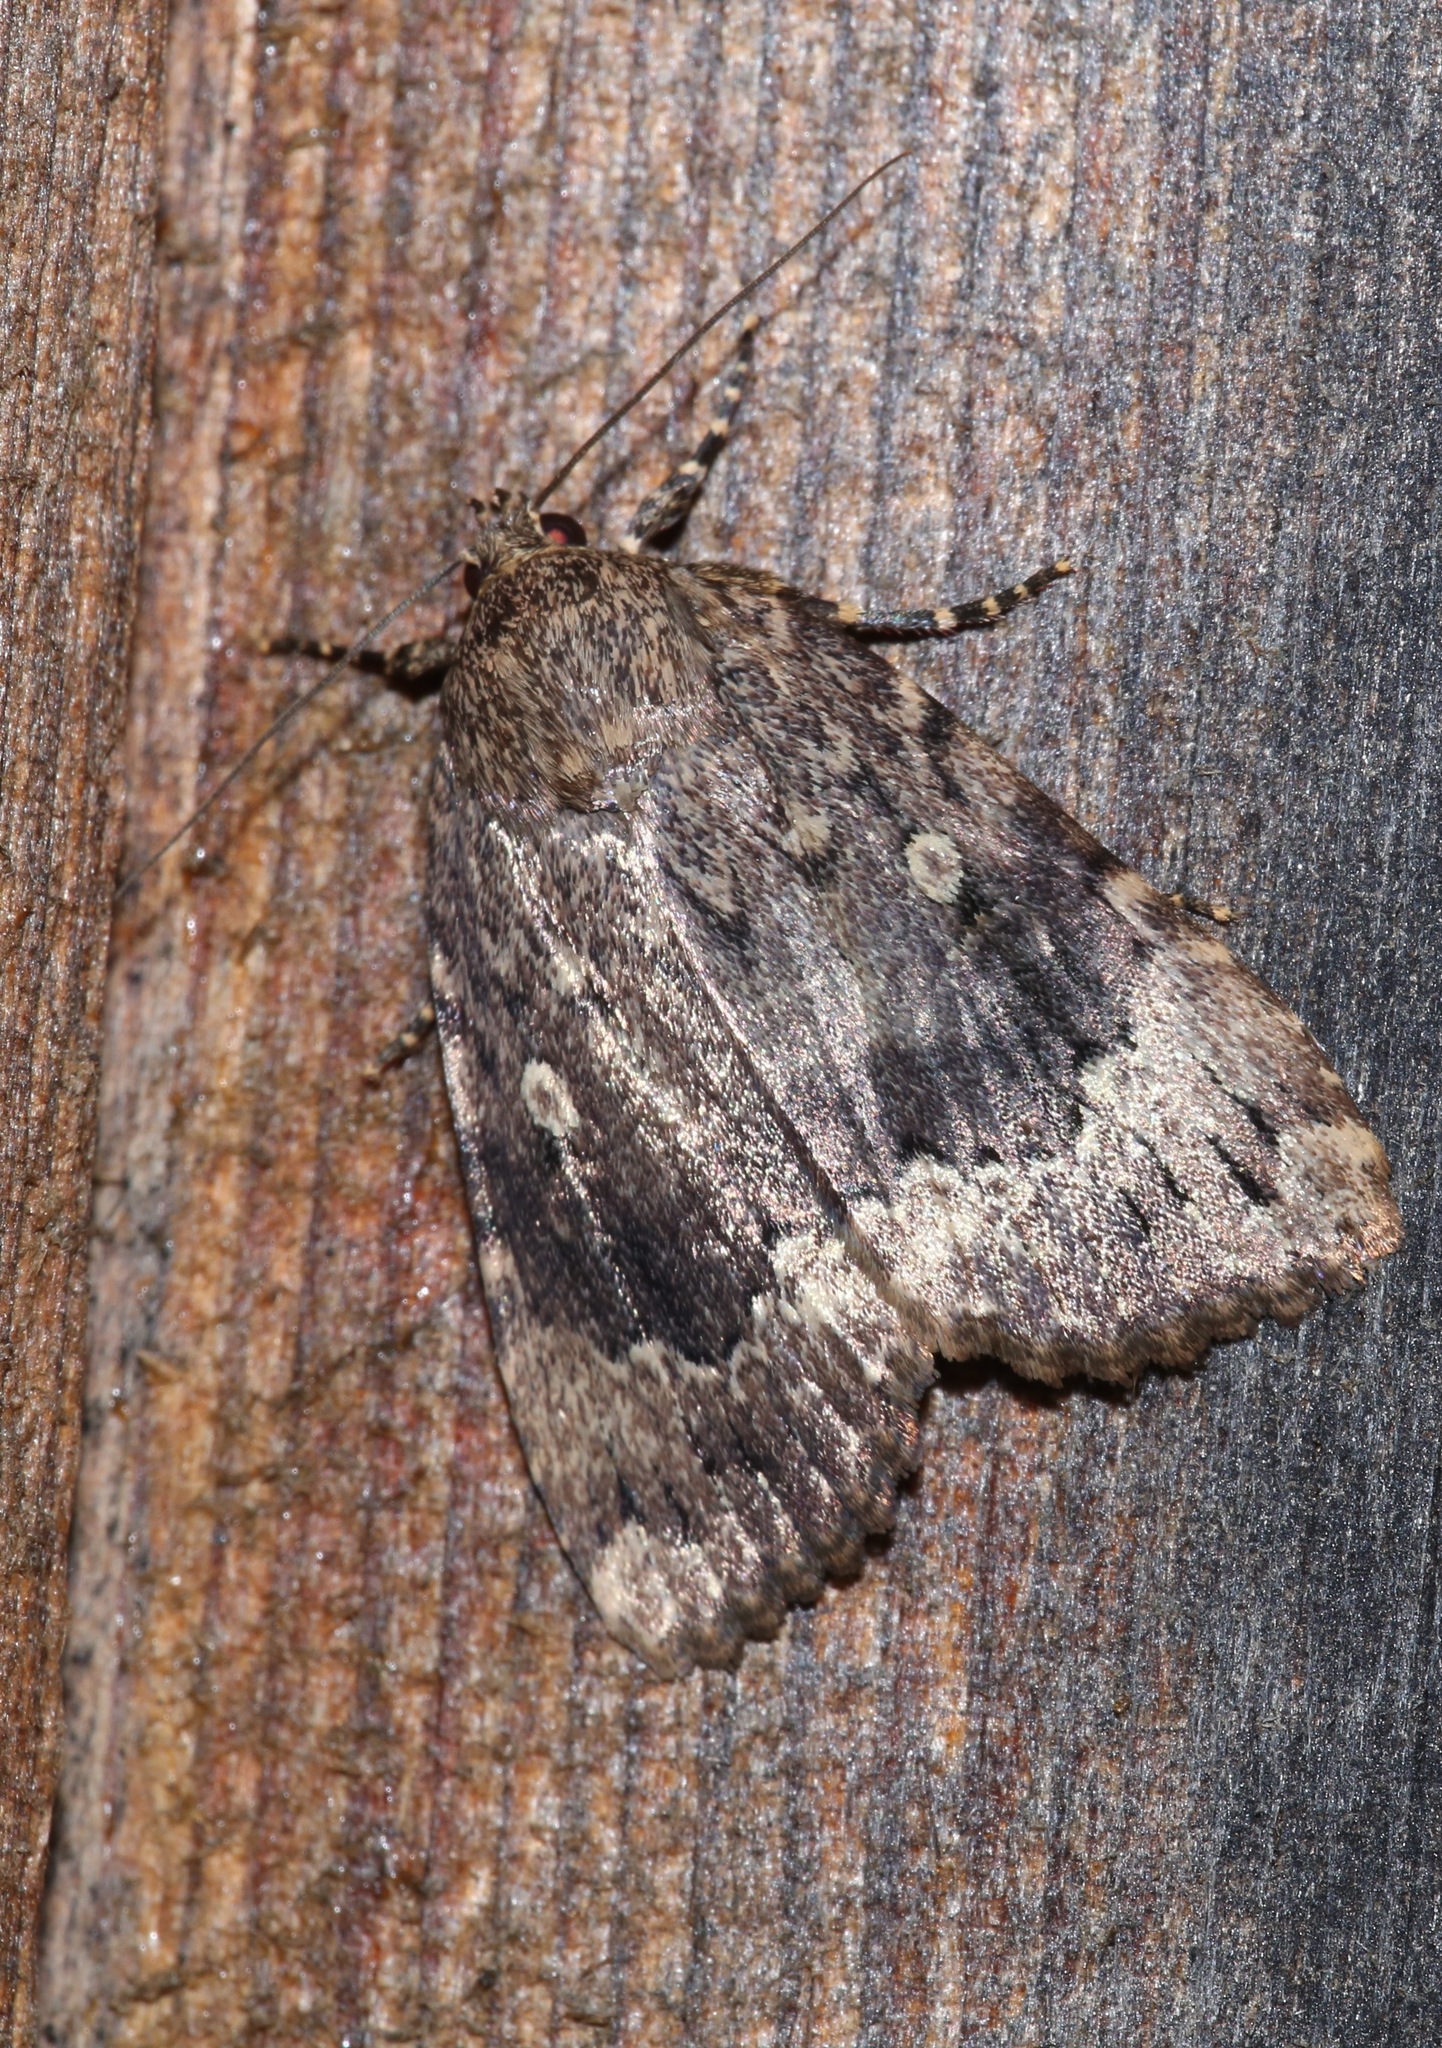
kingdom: Animalia
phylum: Arthropoda
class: Insecta
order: Lepidoptera
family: Noctuidae
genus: Amphipyra
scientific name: Amphipyra pyramidoides
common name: American copper underwing
